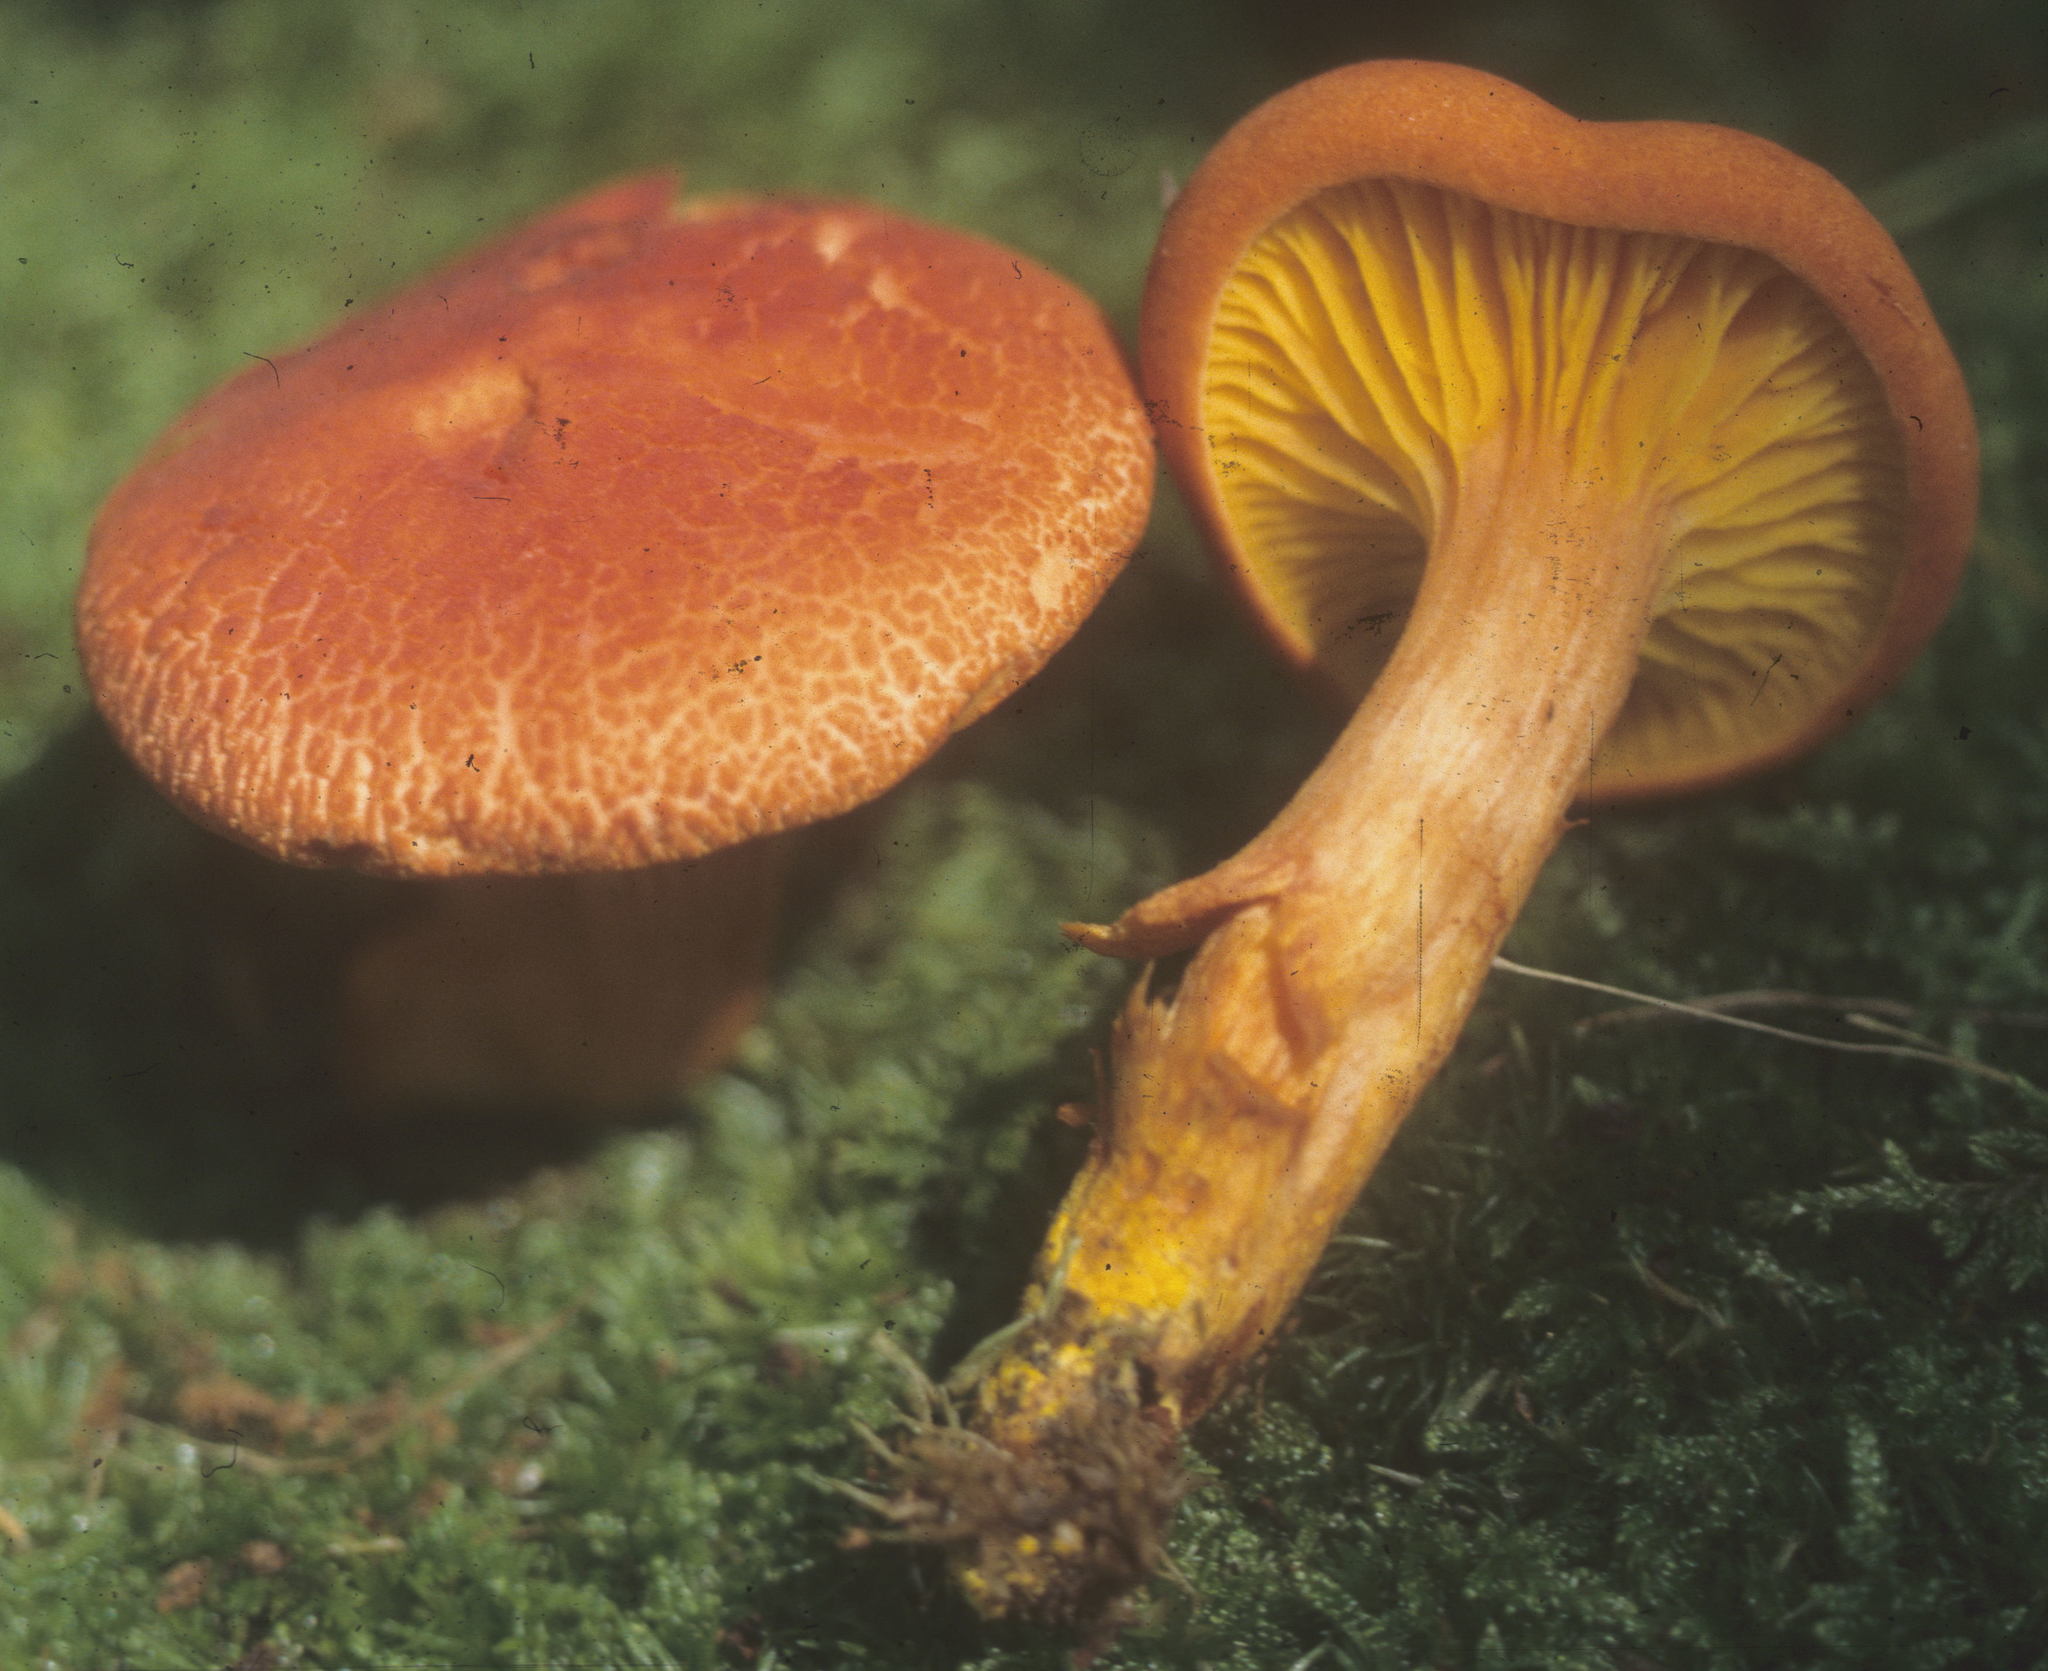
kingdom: Fungi
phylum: Basidiomycota
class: Agaricomycetes
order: Boletales
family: Boletaceae
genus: Phylloporus
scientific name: Phylloporus rhodoxanthus
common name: Golden gilled bolete
